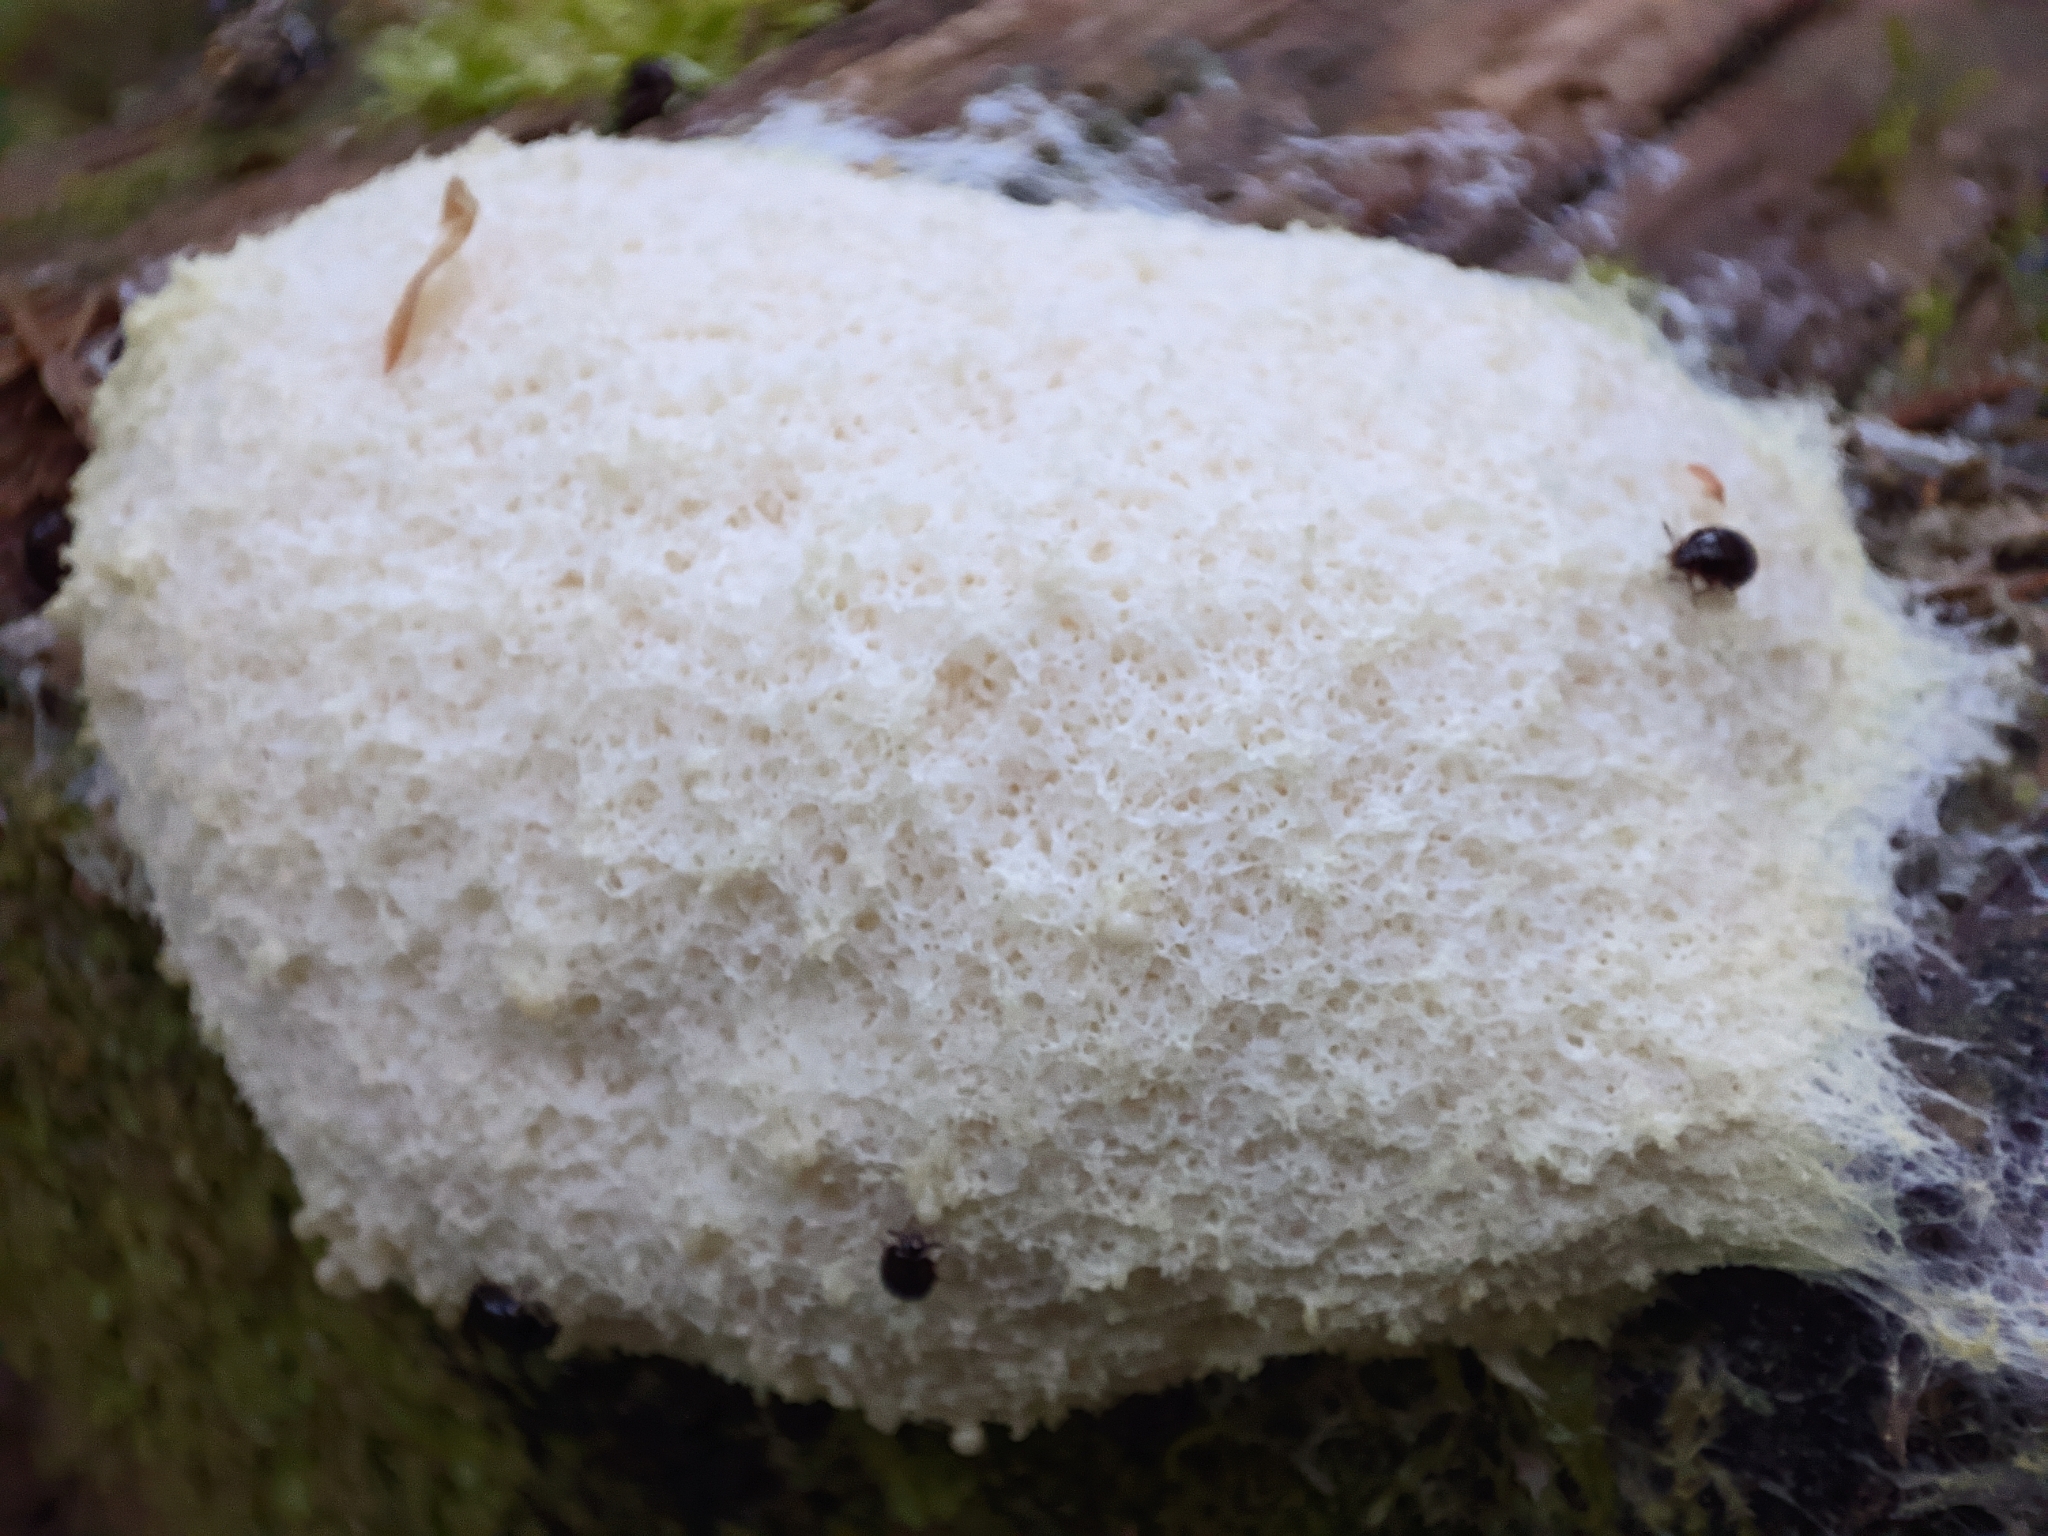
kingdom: Protozoa
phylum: Mycetozoa
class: Myxomycetes
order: Physarales
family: Physaraceae
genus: Fuligo
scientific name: Fuligo septica
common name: Dog vomit slime mold
